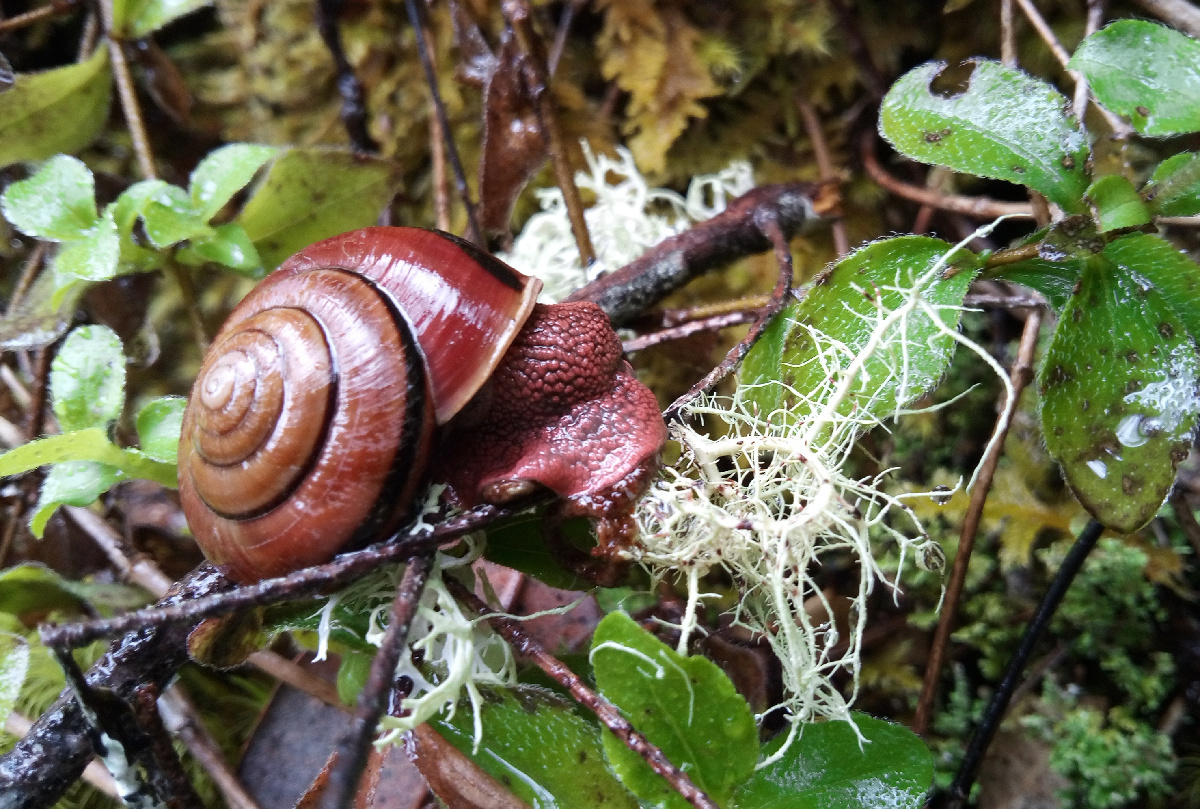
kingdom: Animalia
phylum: Mollusca
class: Gastropoda
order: Stylommatophora
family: Xanthonychidae
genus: Monadenia
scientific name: Monadenia fidelis
